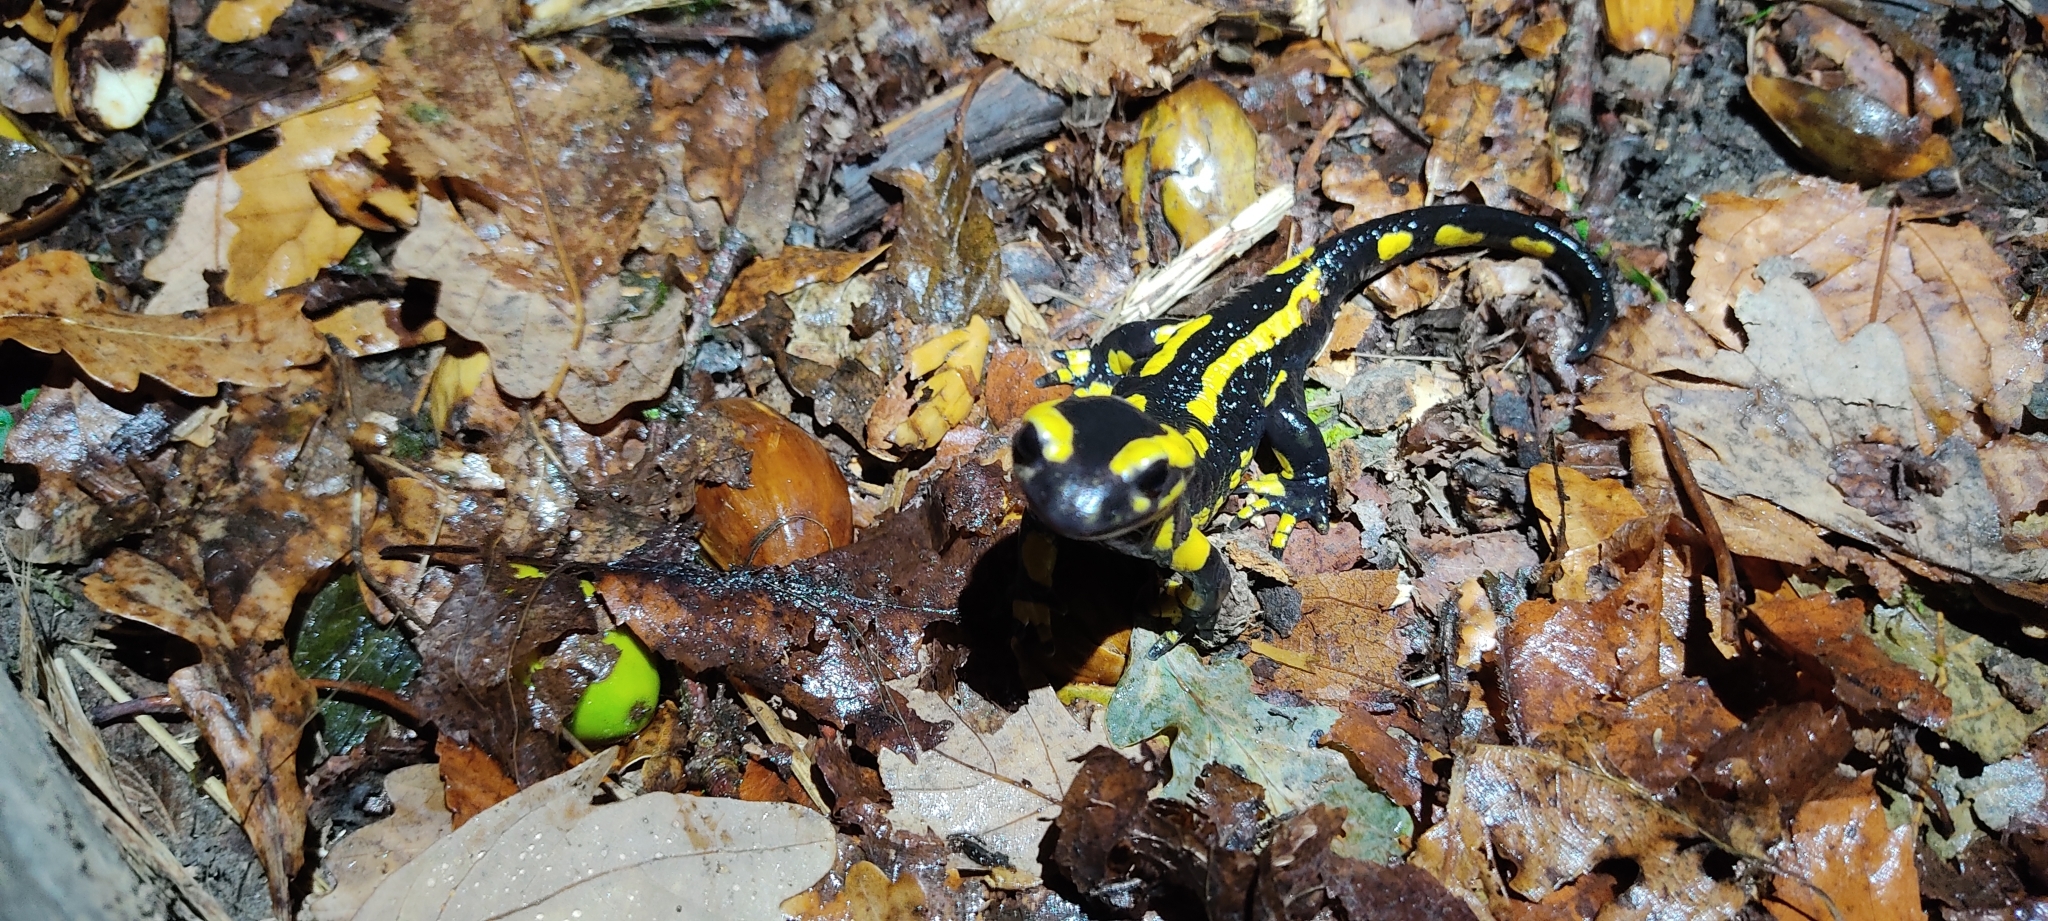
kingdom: Animalia
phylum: Chordata
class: Amphibia
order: Caudata
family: Salamandridae
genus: Salamandra
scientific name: Salamandra salamandra
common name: Fire salamander
